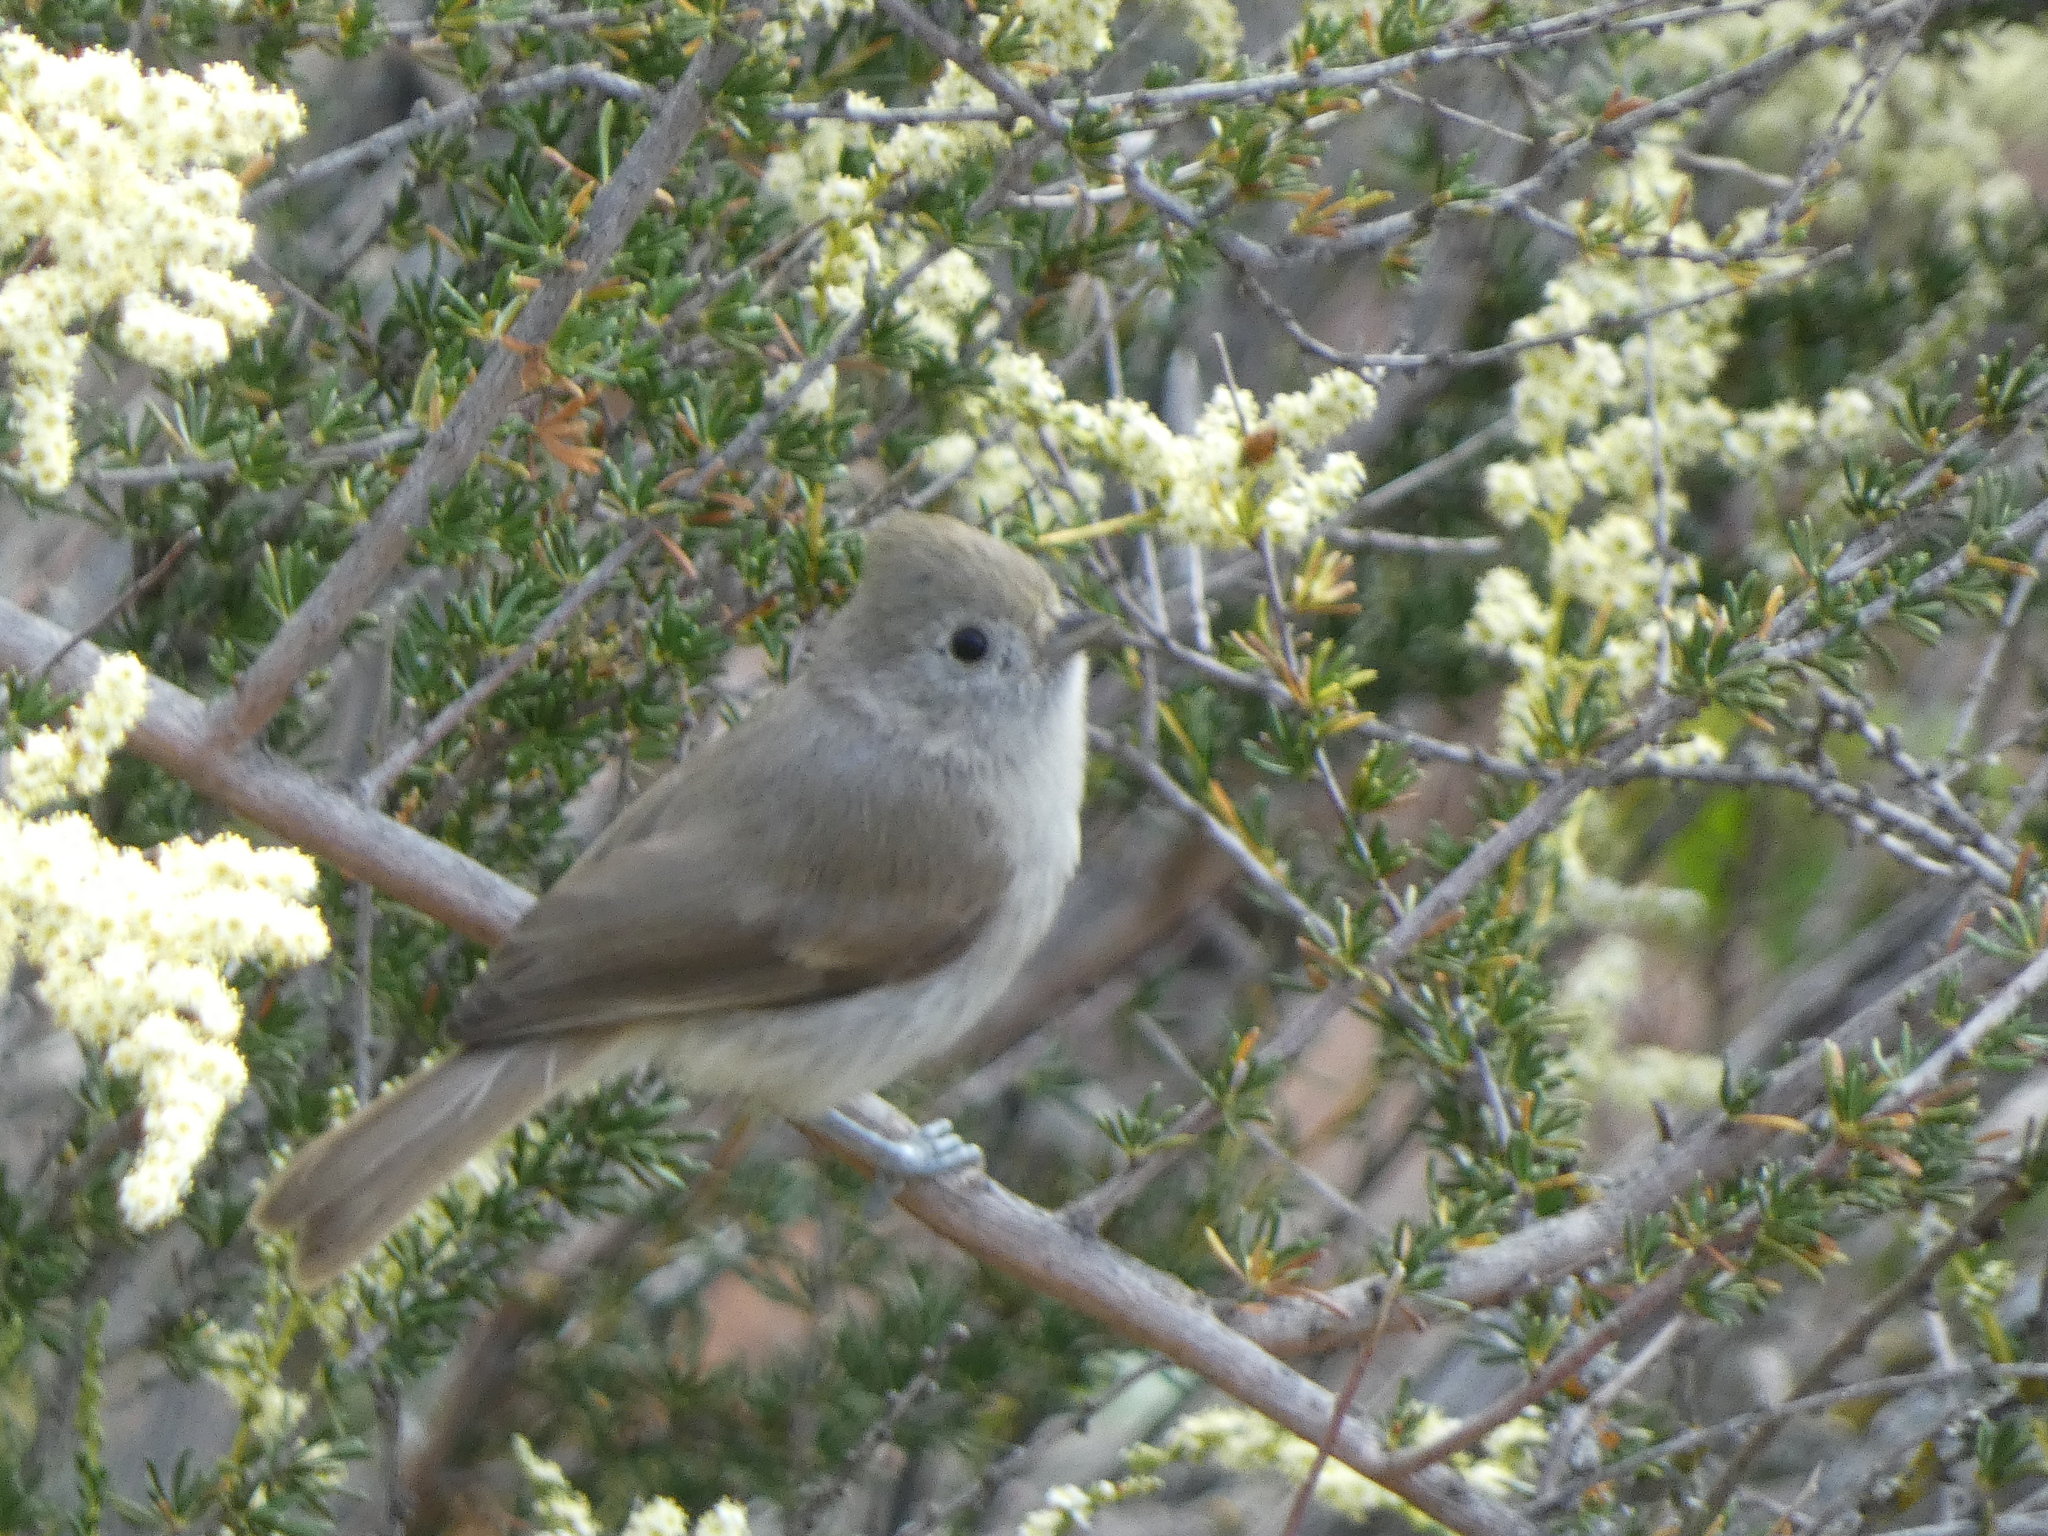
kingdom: Animalia
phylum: Chordata
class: Aves
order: Passeriformes
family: Paridae
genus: Baeolophus
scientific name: Baeolophus inornatus
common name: Oak titmouse
